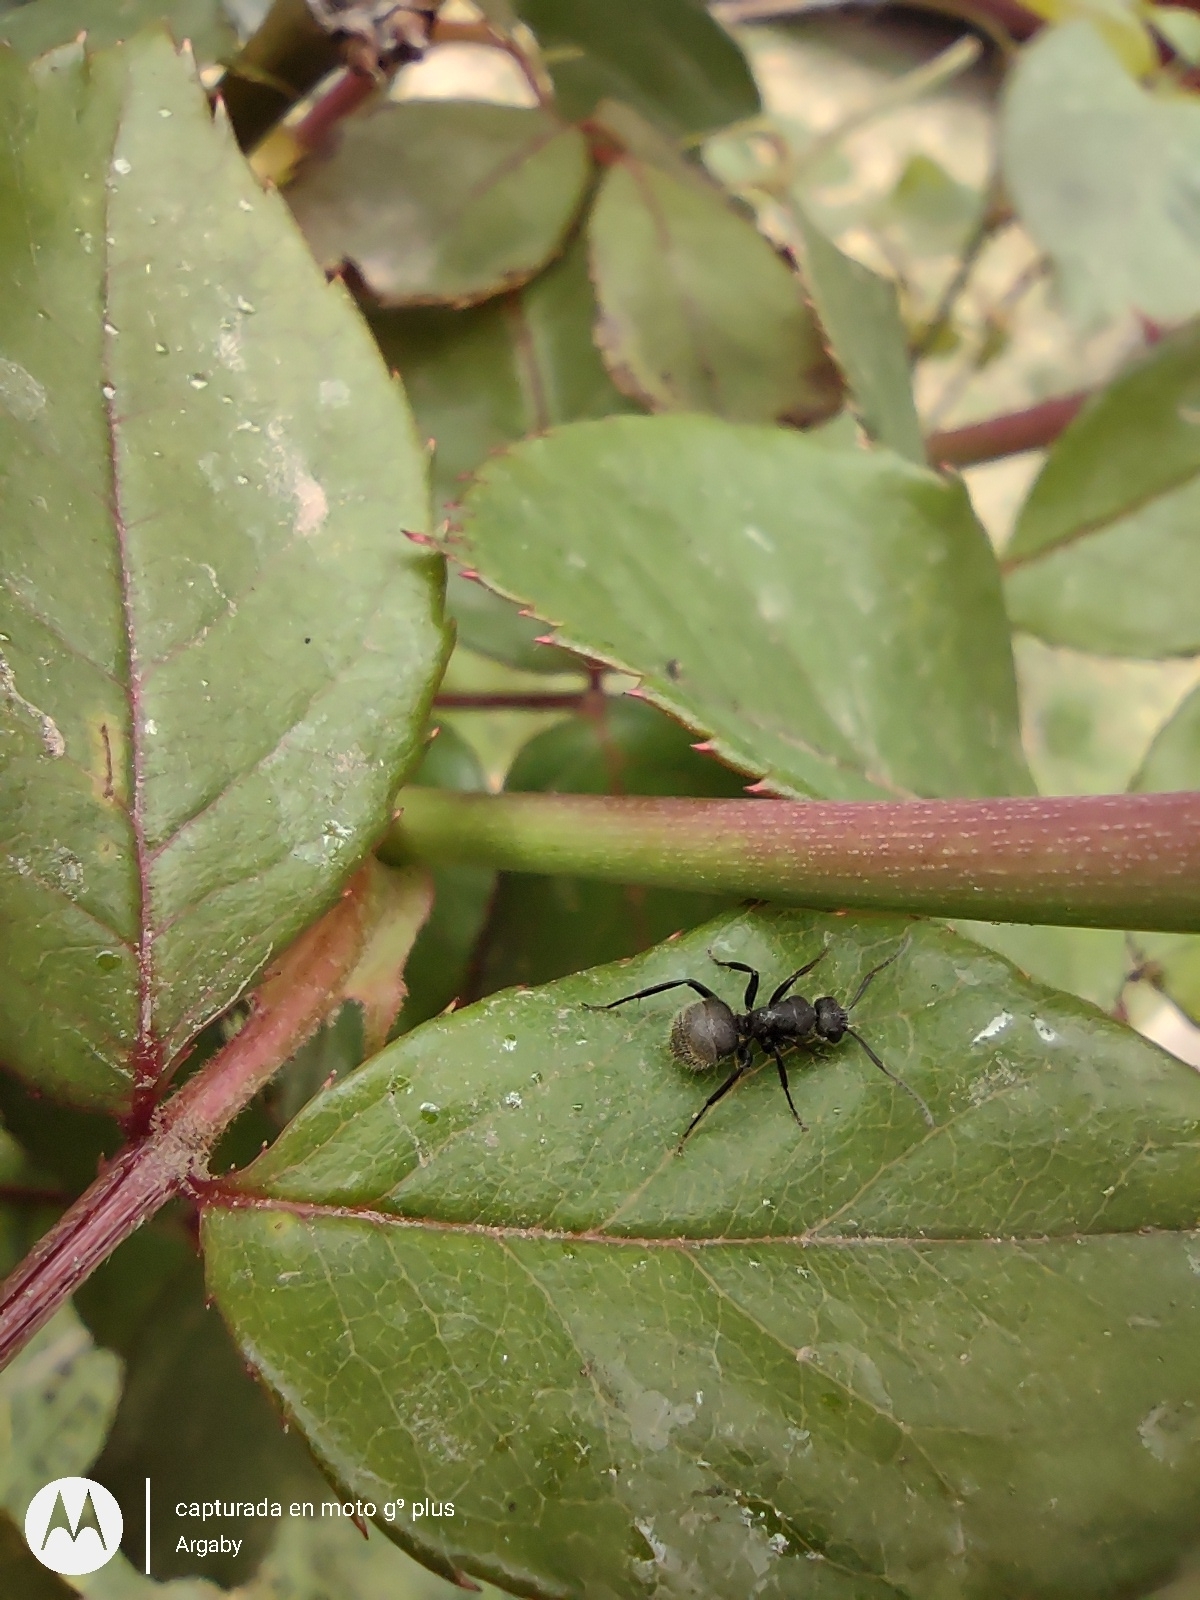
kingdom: Animalia
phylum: Arthropoda
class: Insecta
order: Hymenoptera
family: Formicidae
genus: Camponotus
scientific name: Camponotus mus
